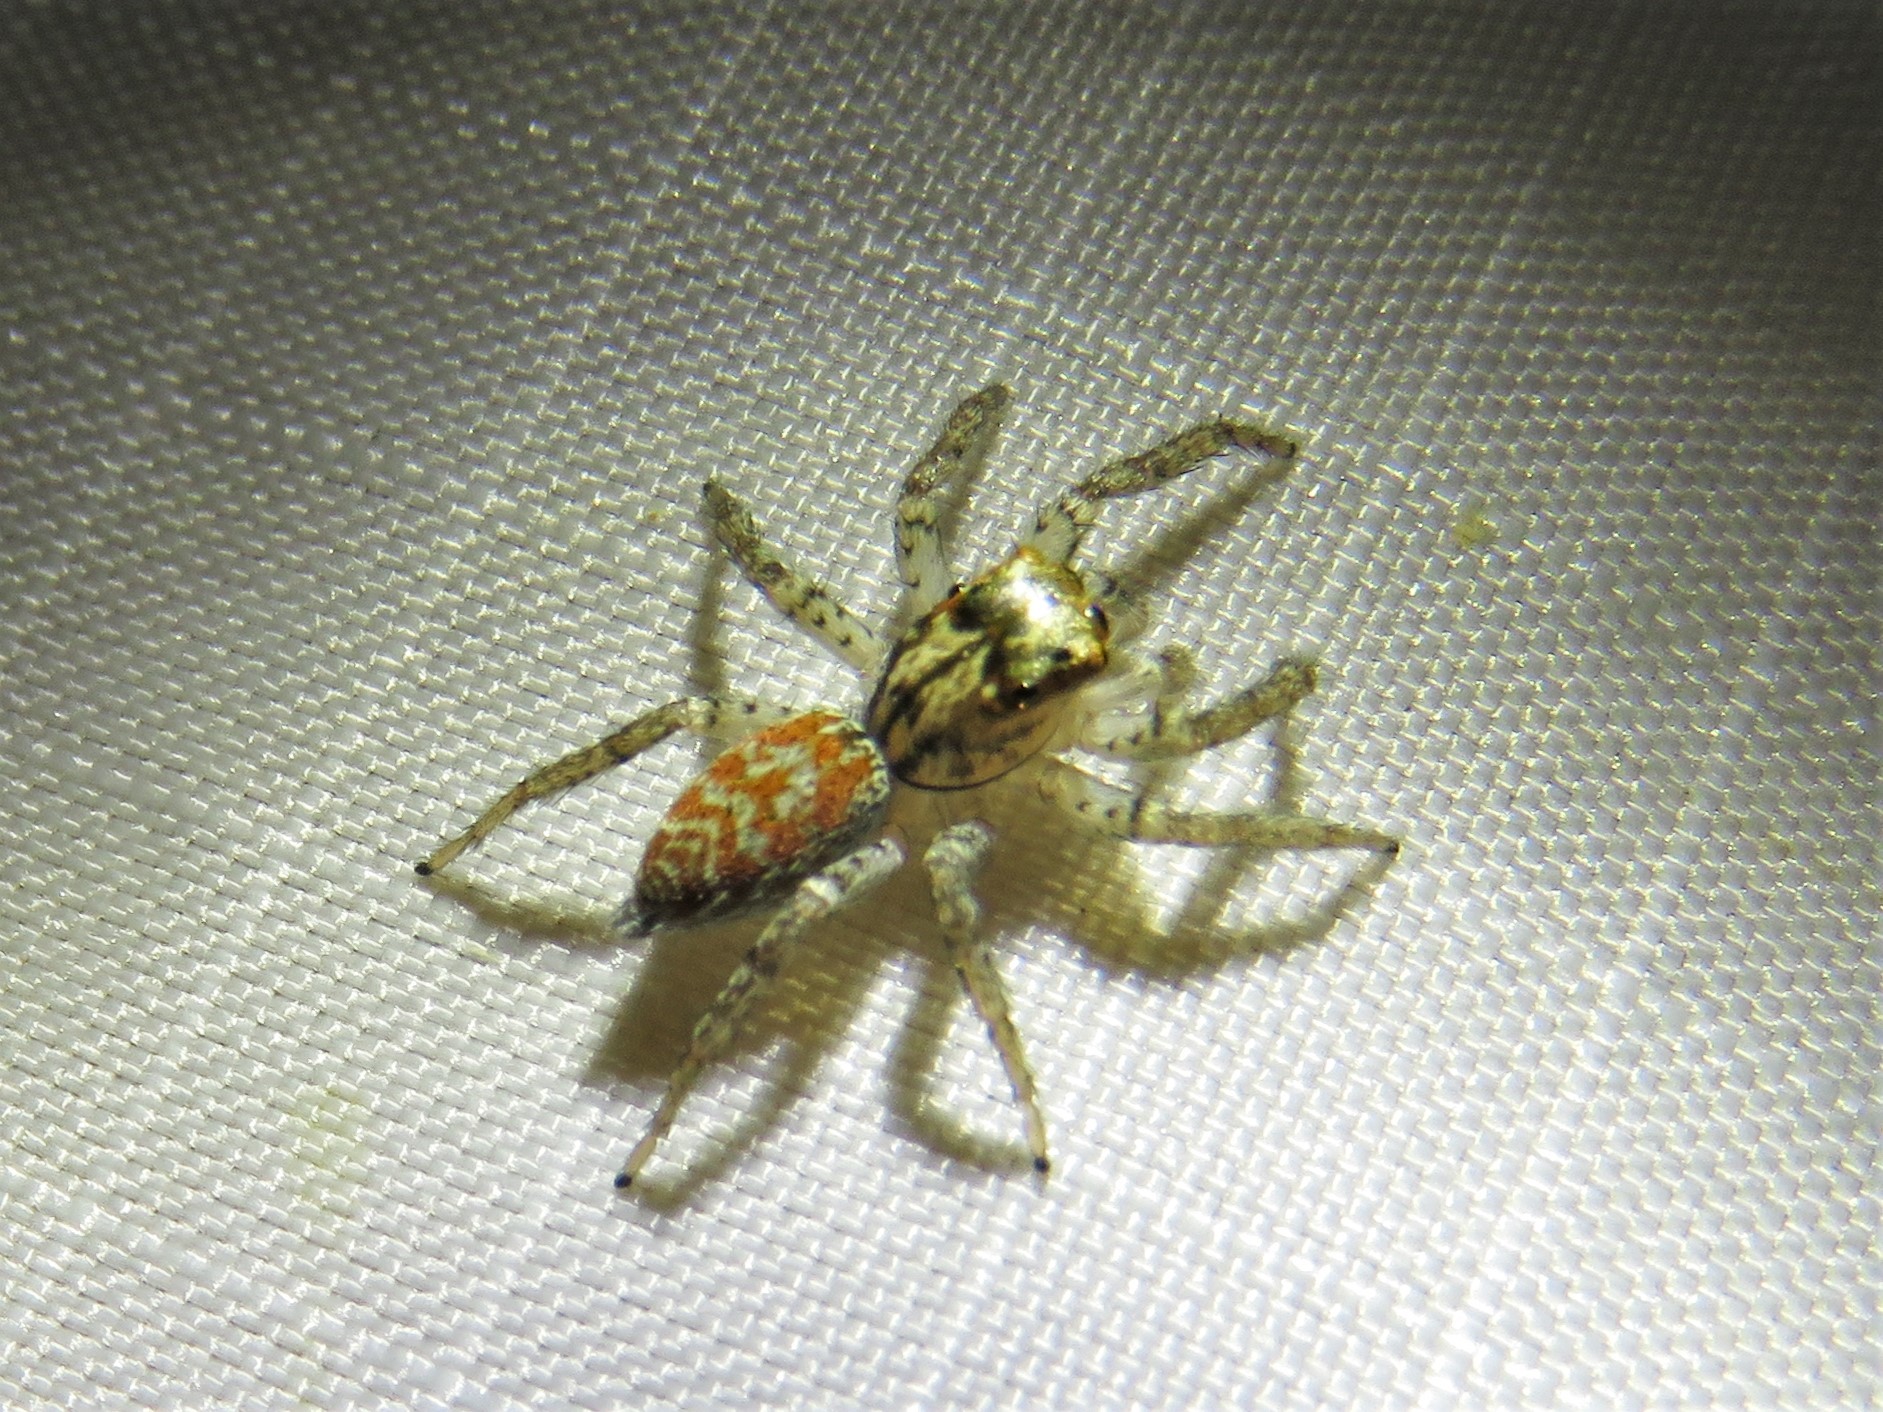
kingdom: Animalia
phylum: Arthropoda
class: Arachnida
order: Araneae
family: Salticidae
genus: Maevia
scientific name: Maevia inclemens
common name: Dimorphic jumper
